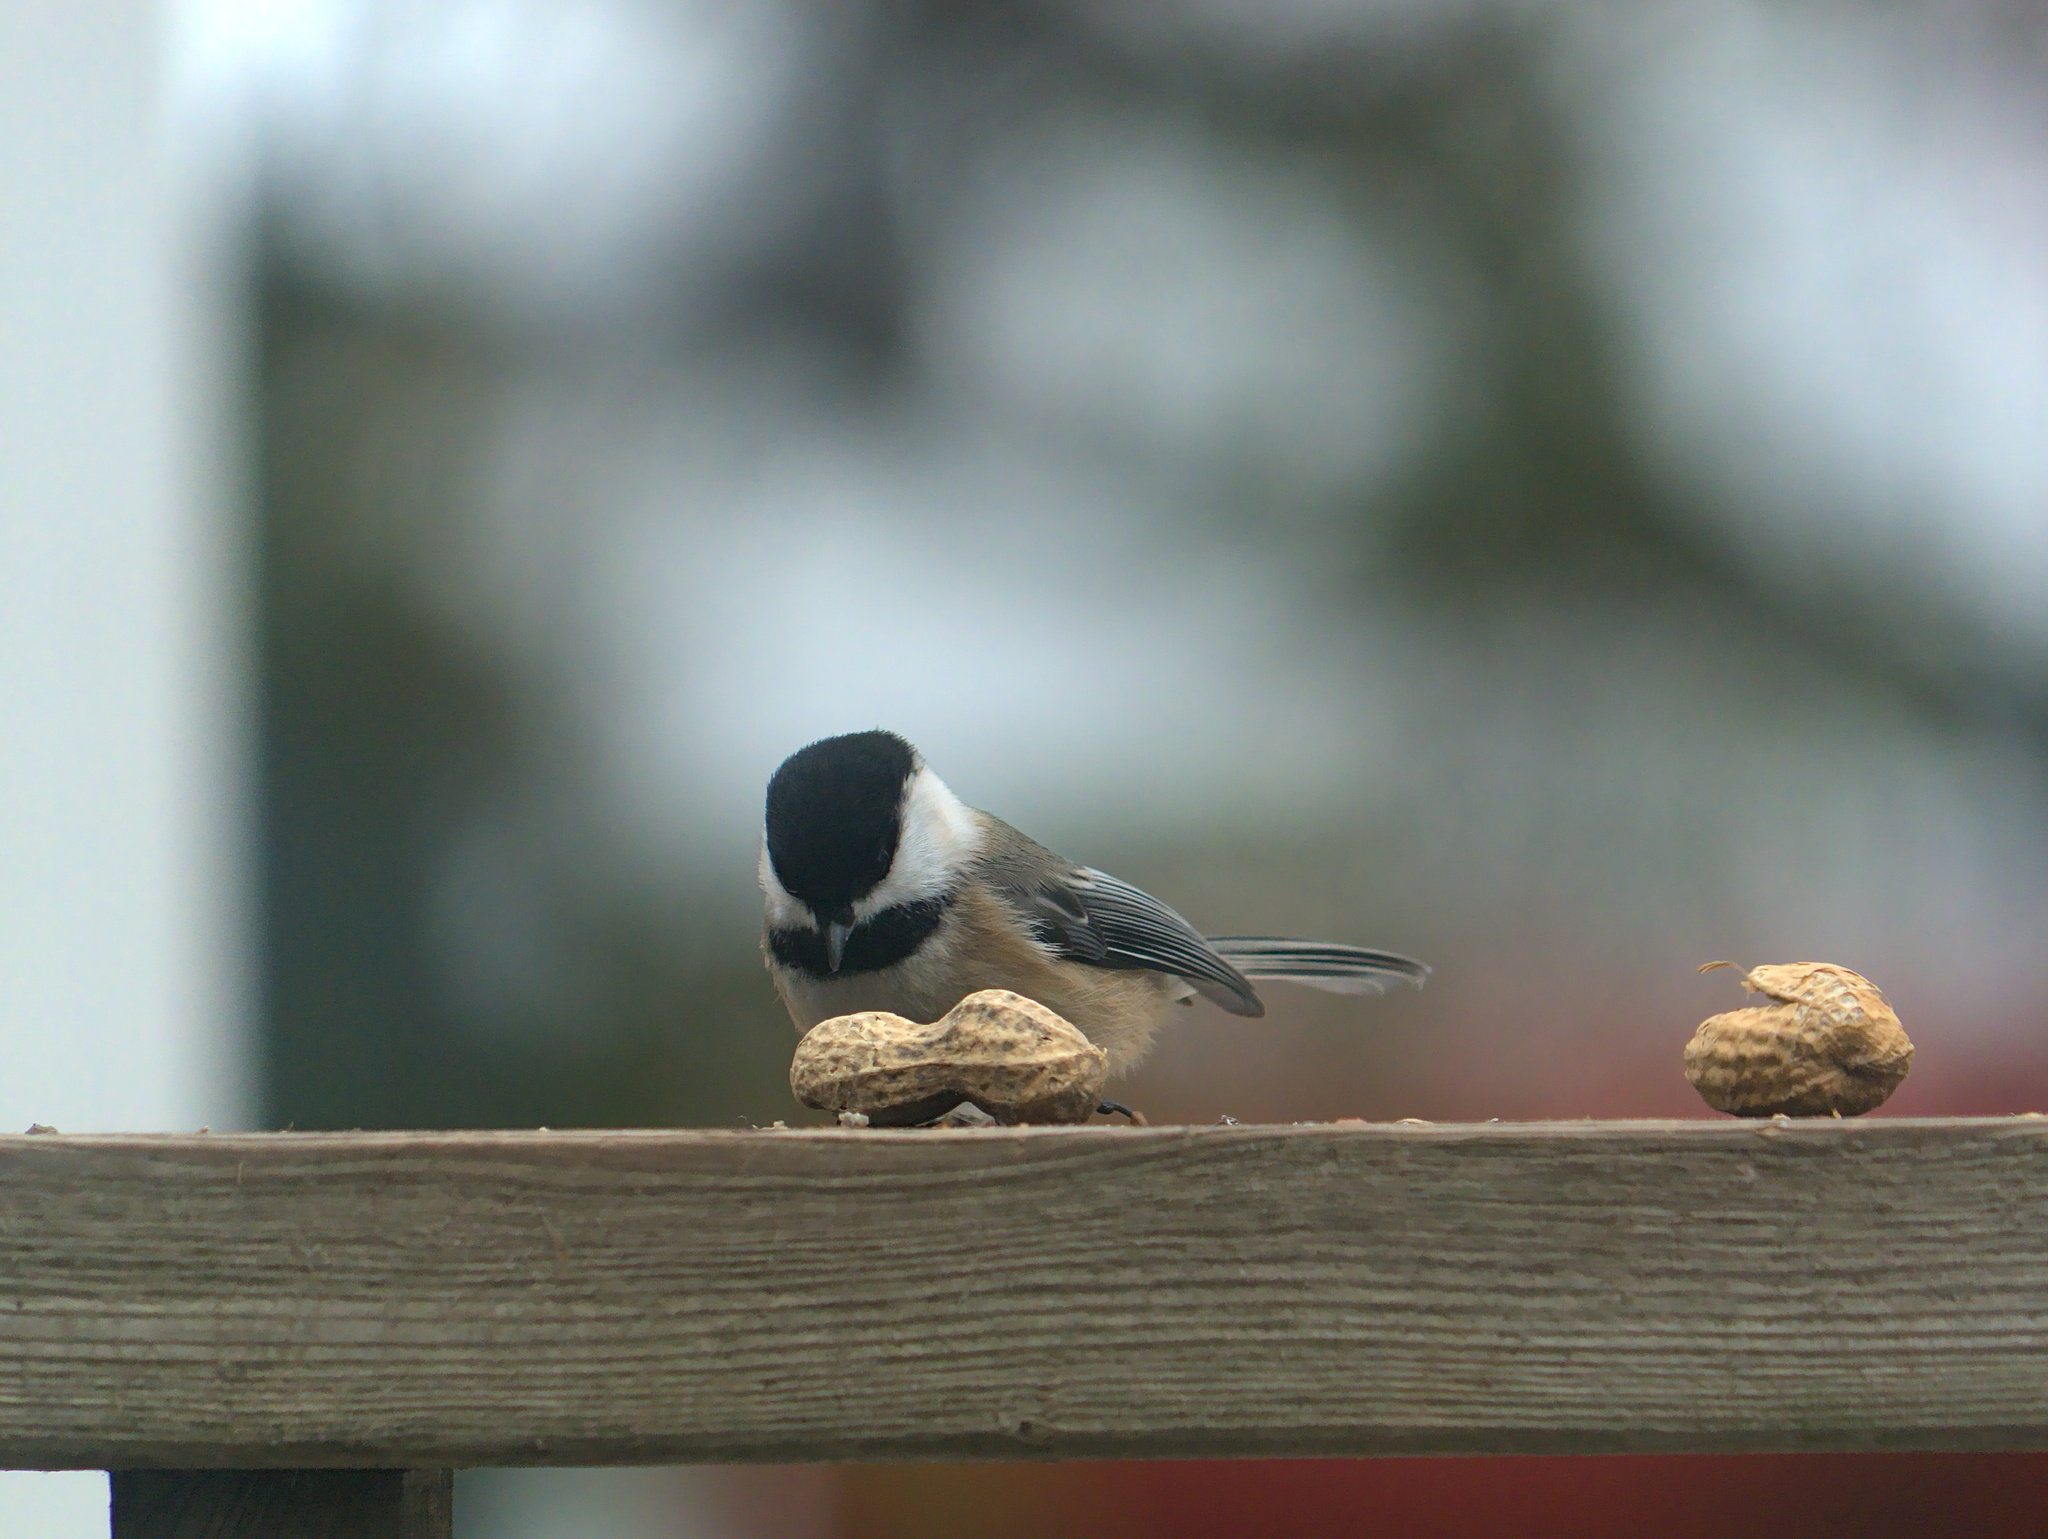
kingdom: Animalia
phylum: Chordata
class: Aves
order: Passeriformes
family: Paridae
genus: Poecile
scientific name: Poecile atricapillus
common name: Black-capped chickadee
